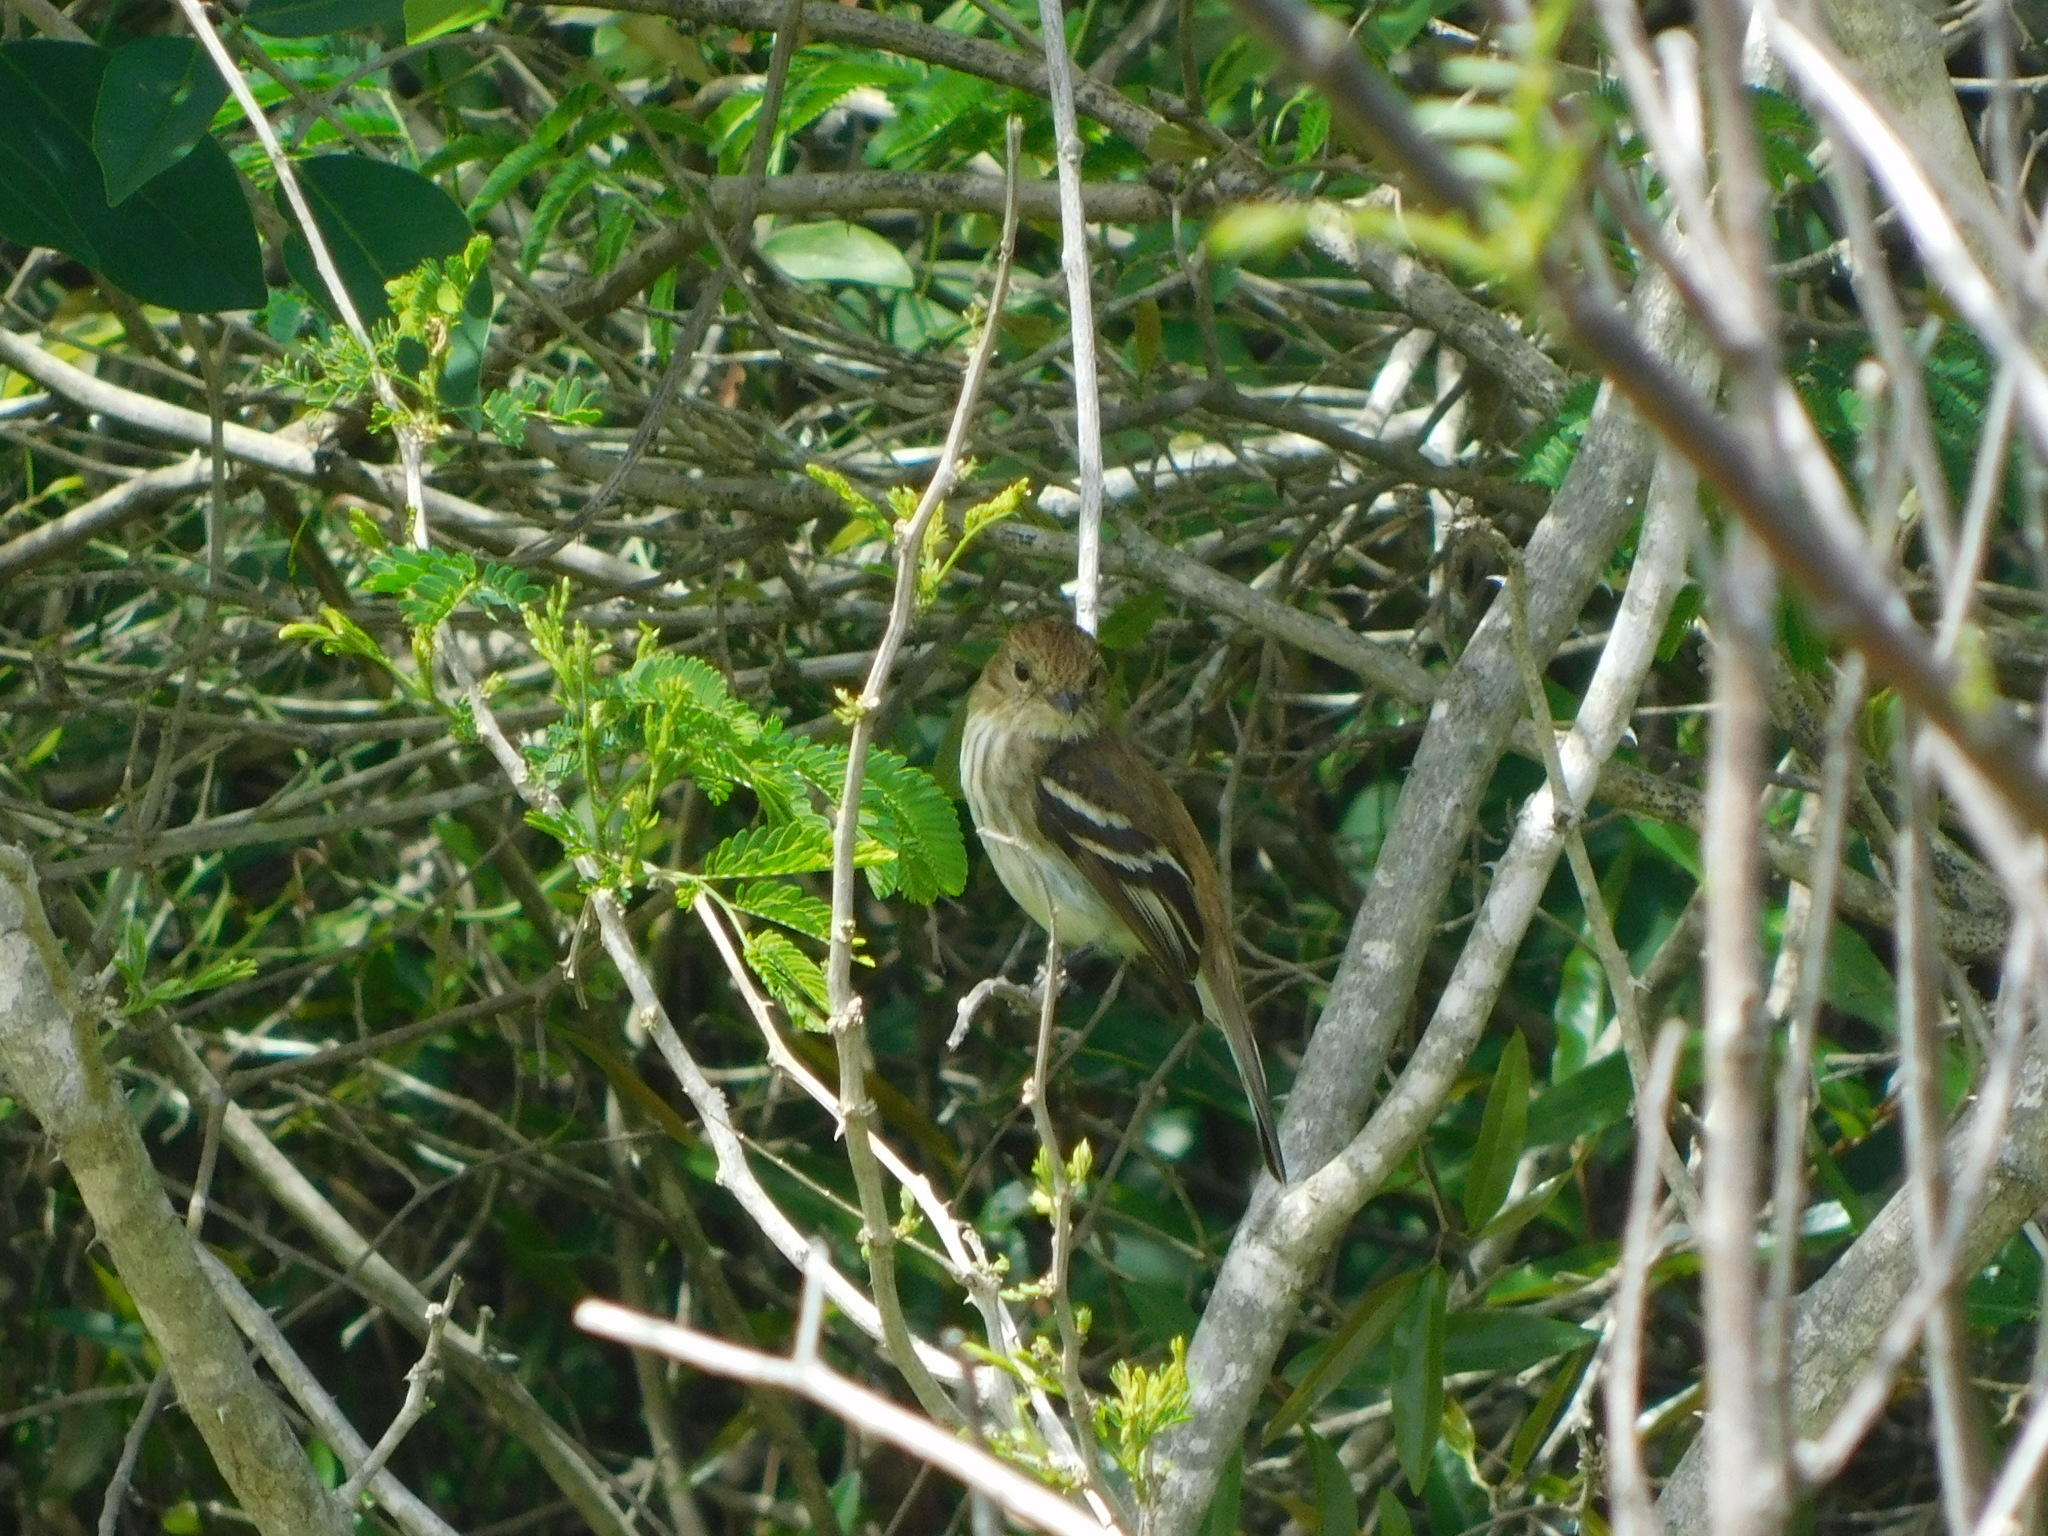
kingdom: Animalia
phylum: Chordata
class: Aves
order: Passeriformes
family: Tyrannidae
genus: Myiophobus
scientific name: Myiophobus fasciatus
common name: Bran-colored flycatcher
